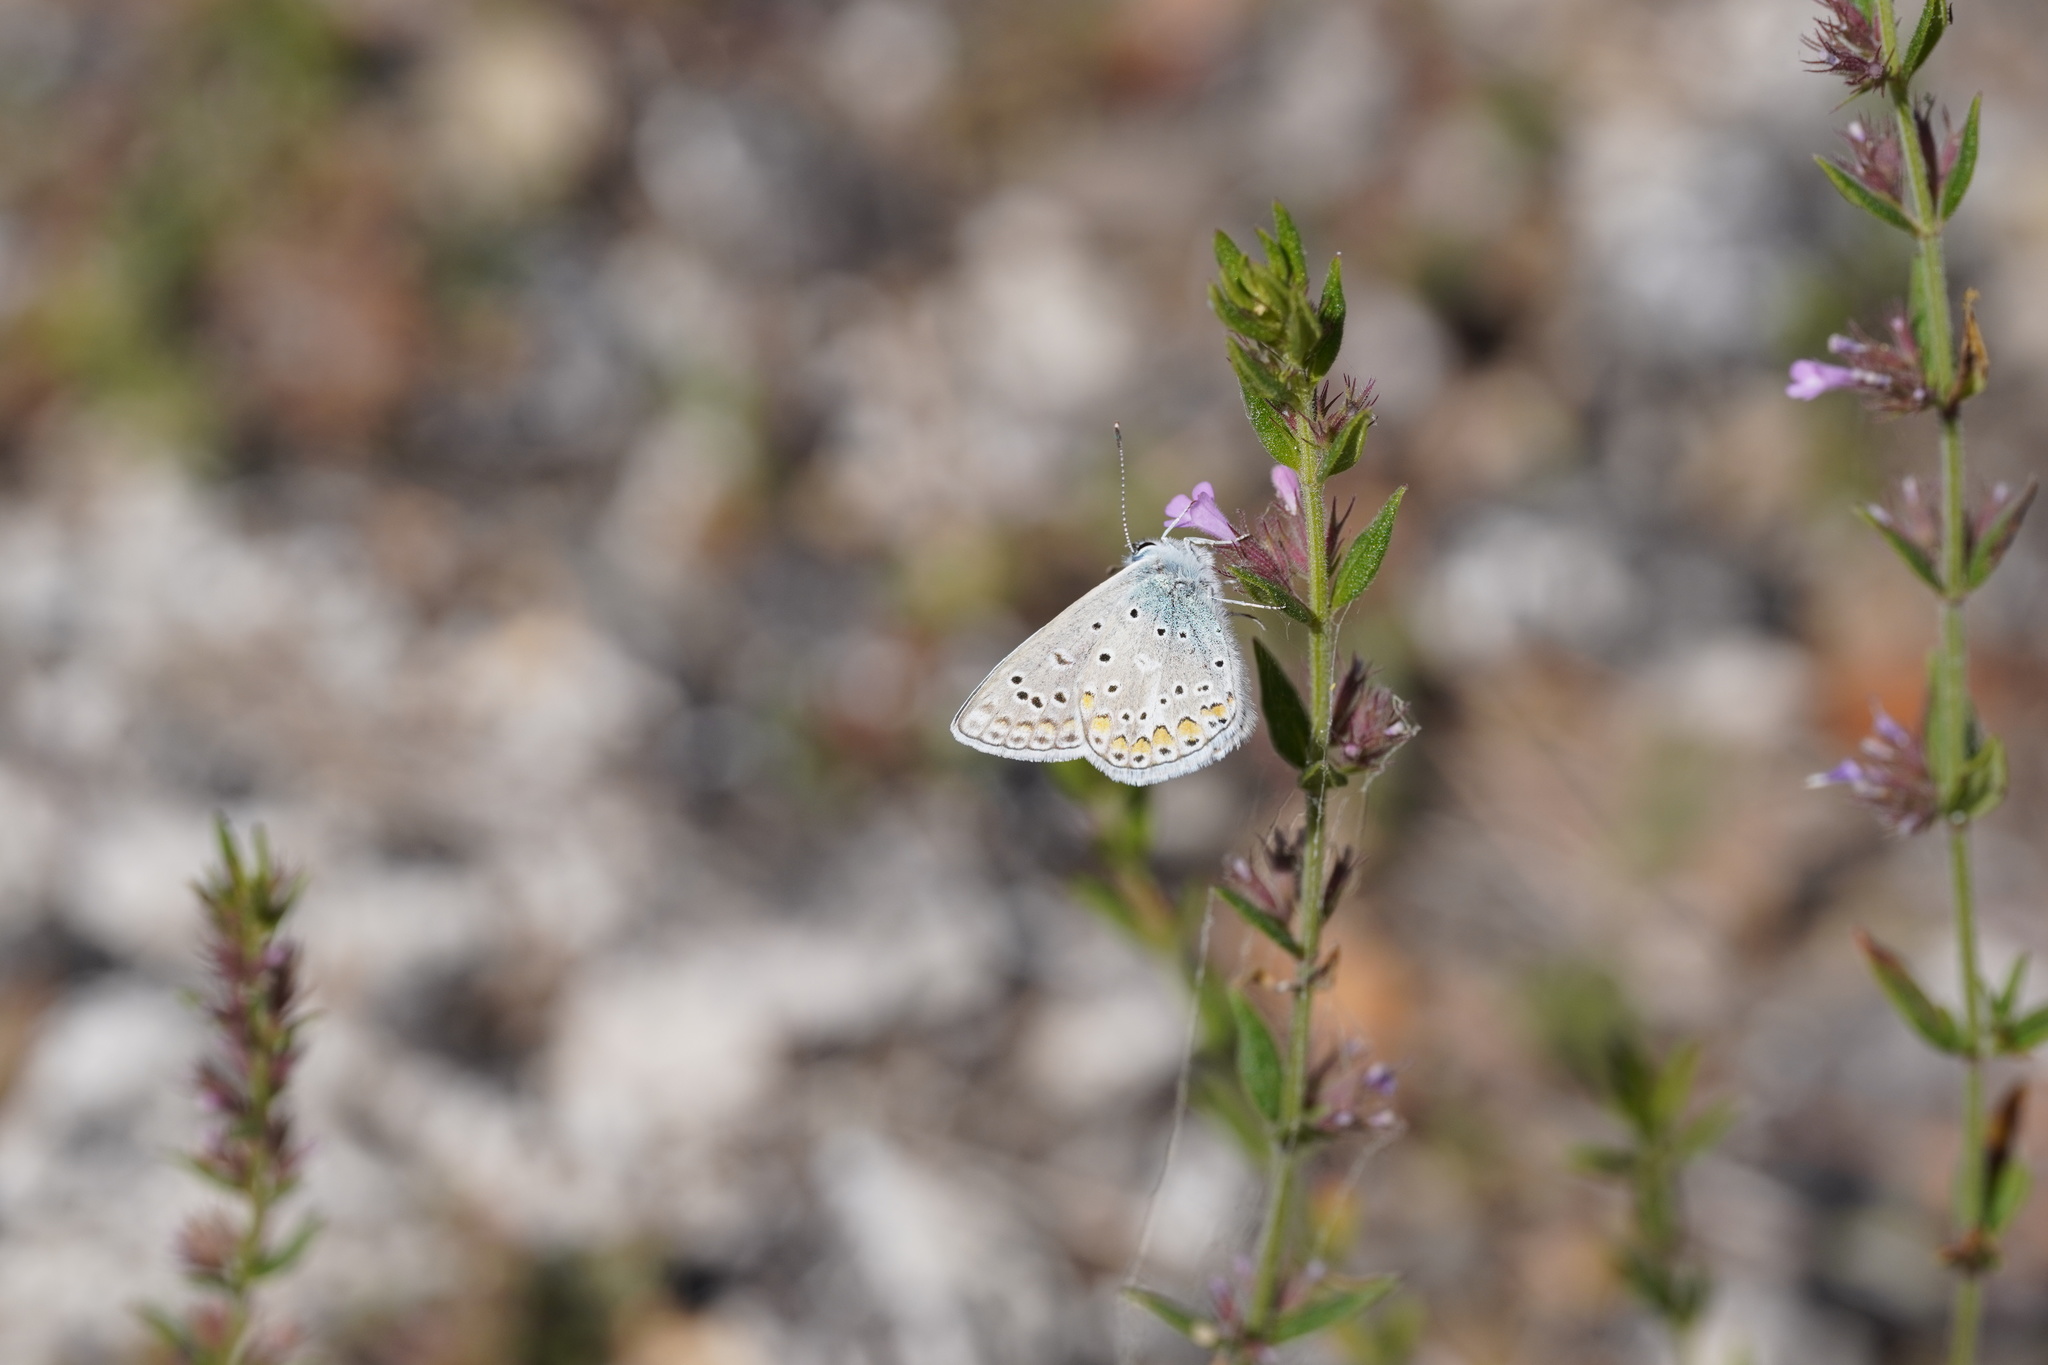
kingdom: Animalia
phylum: Arthropoda
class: Insecta
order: Lepidoptera
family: Lycaenidae
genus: Polyommatus
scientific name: Polyommatus celina
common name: Austaut's blue
